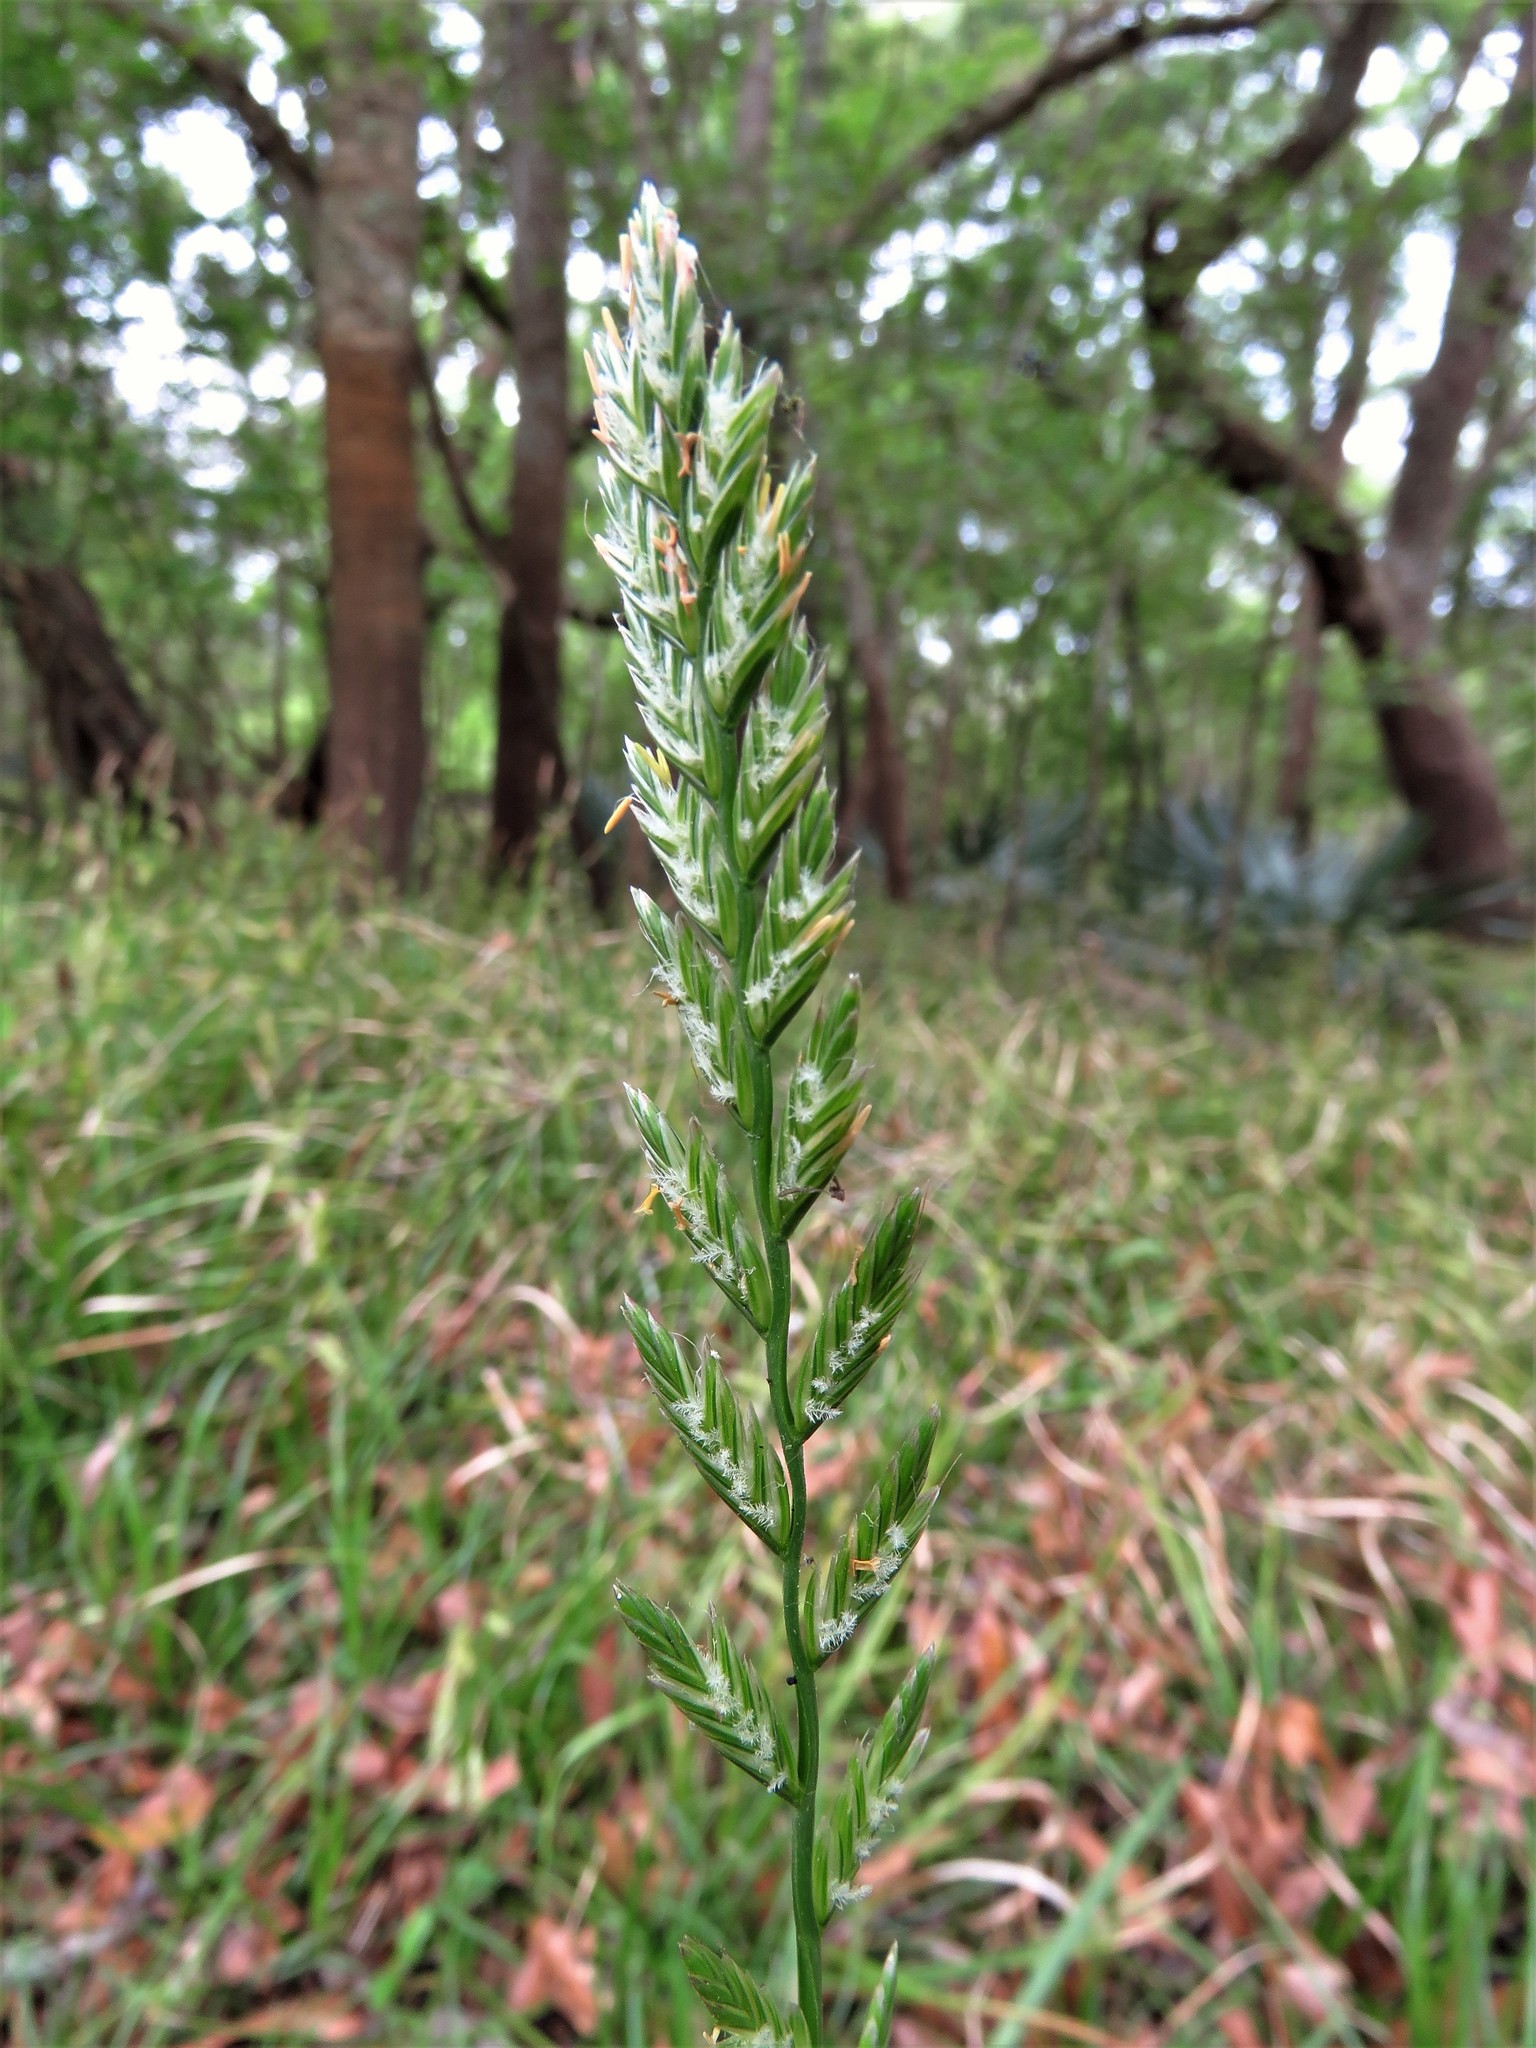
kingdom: Plantae
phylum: Tracheophyta
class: Liliopsida
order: Poales
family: Poaceae
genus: Lolium
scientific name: Lolium perenne
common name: Perennial ryegrass
